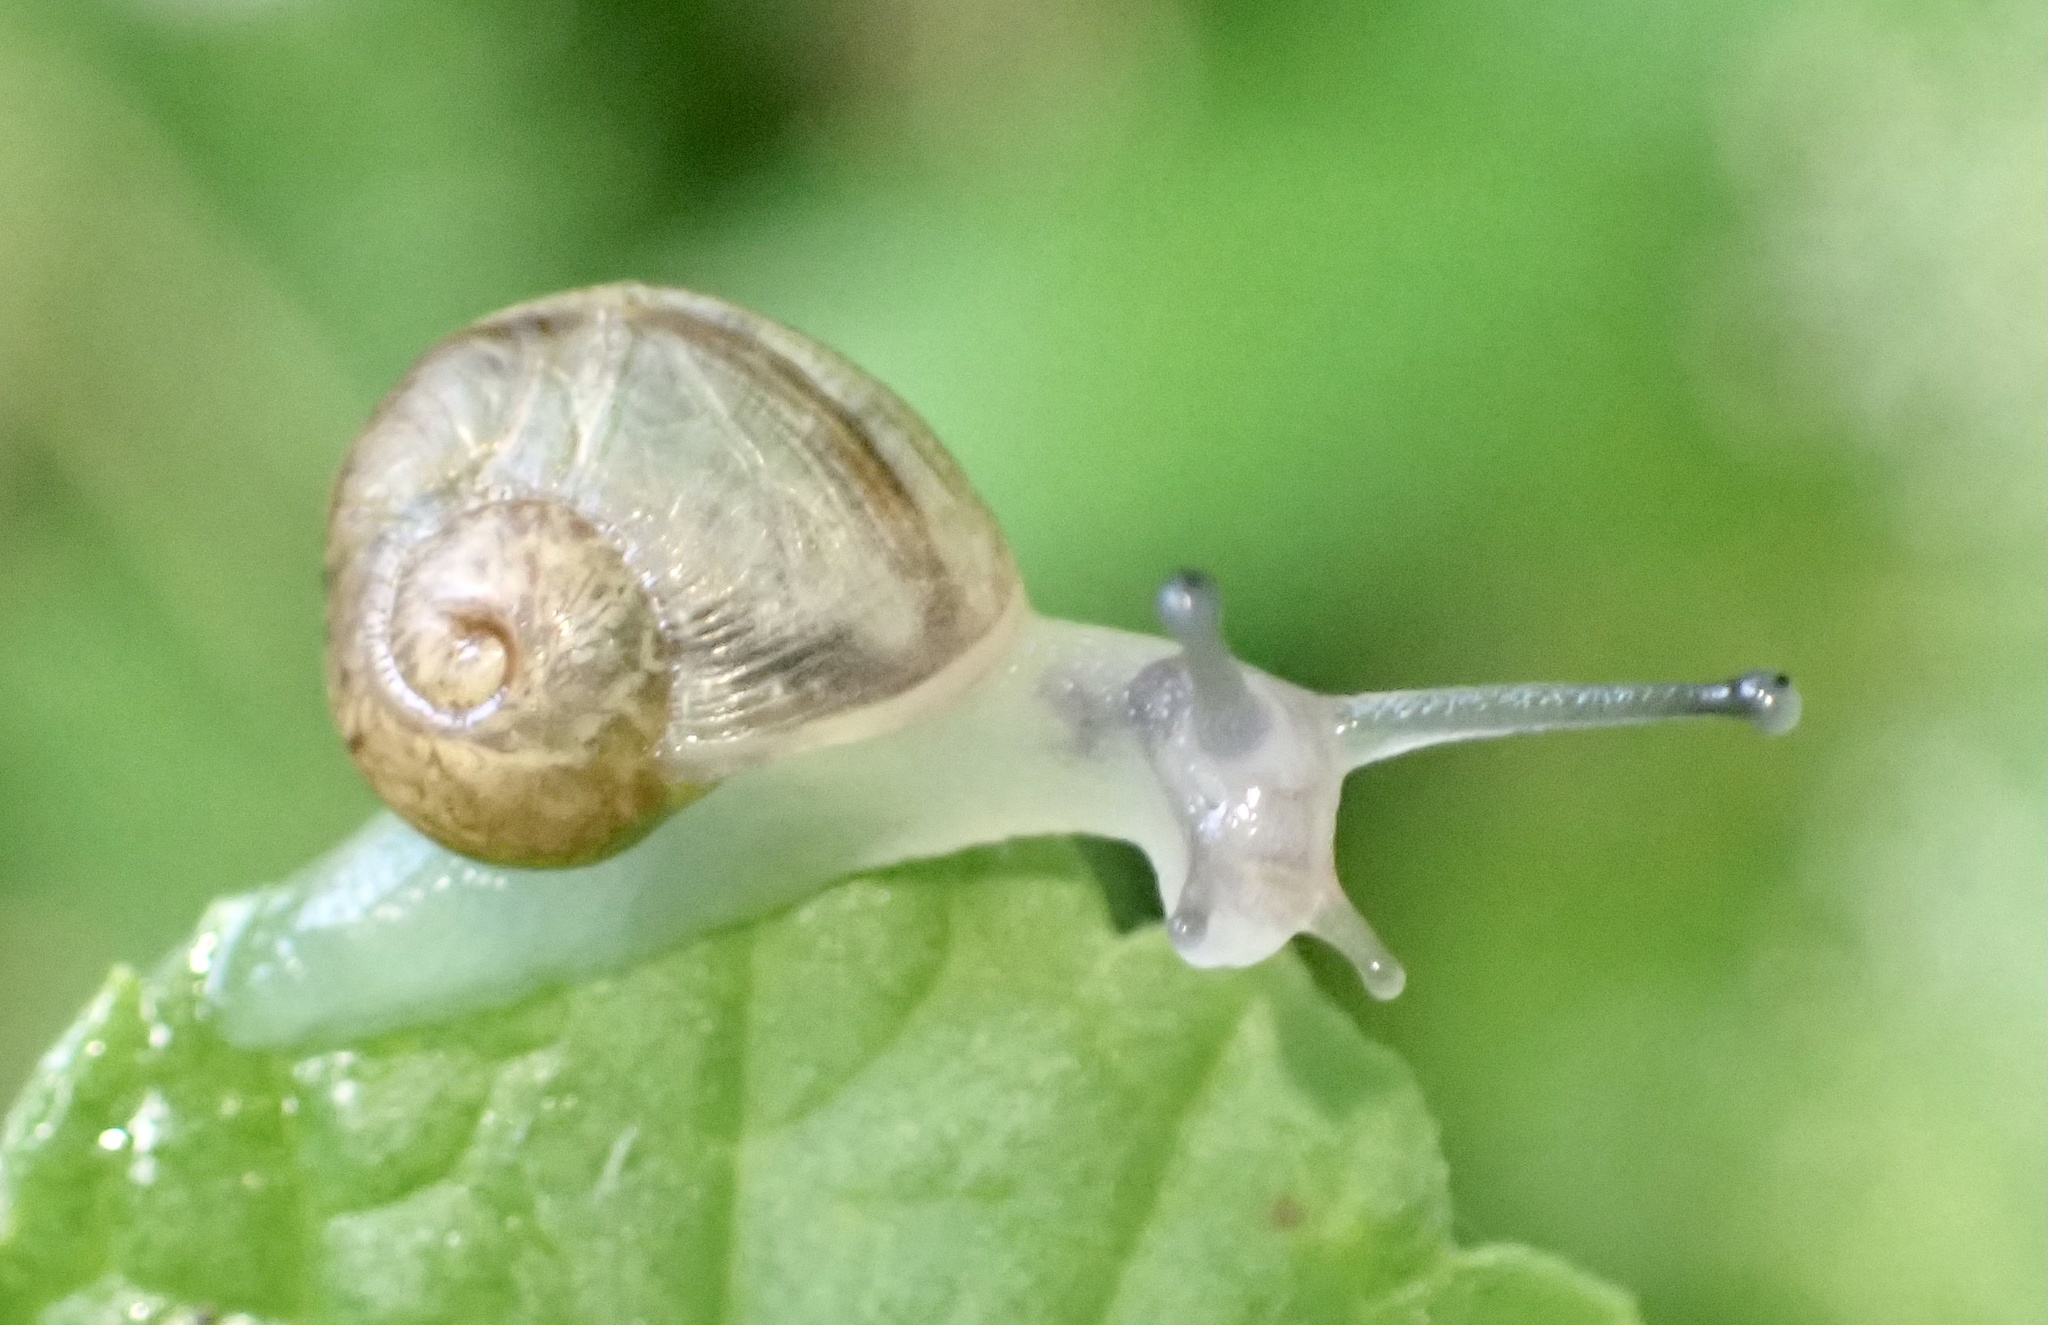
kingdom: Animalia
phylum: Mollusca
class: Gastropoda
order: Stylommatophora
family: Helicidae
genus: Cornu
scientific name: Cornu aspersum
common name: Brown garden snail
